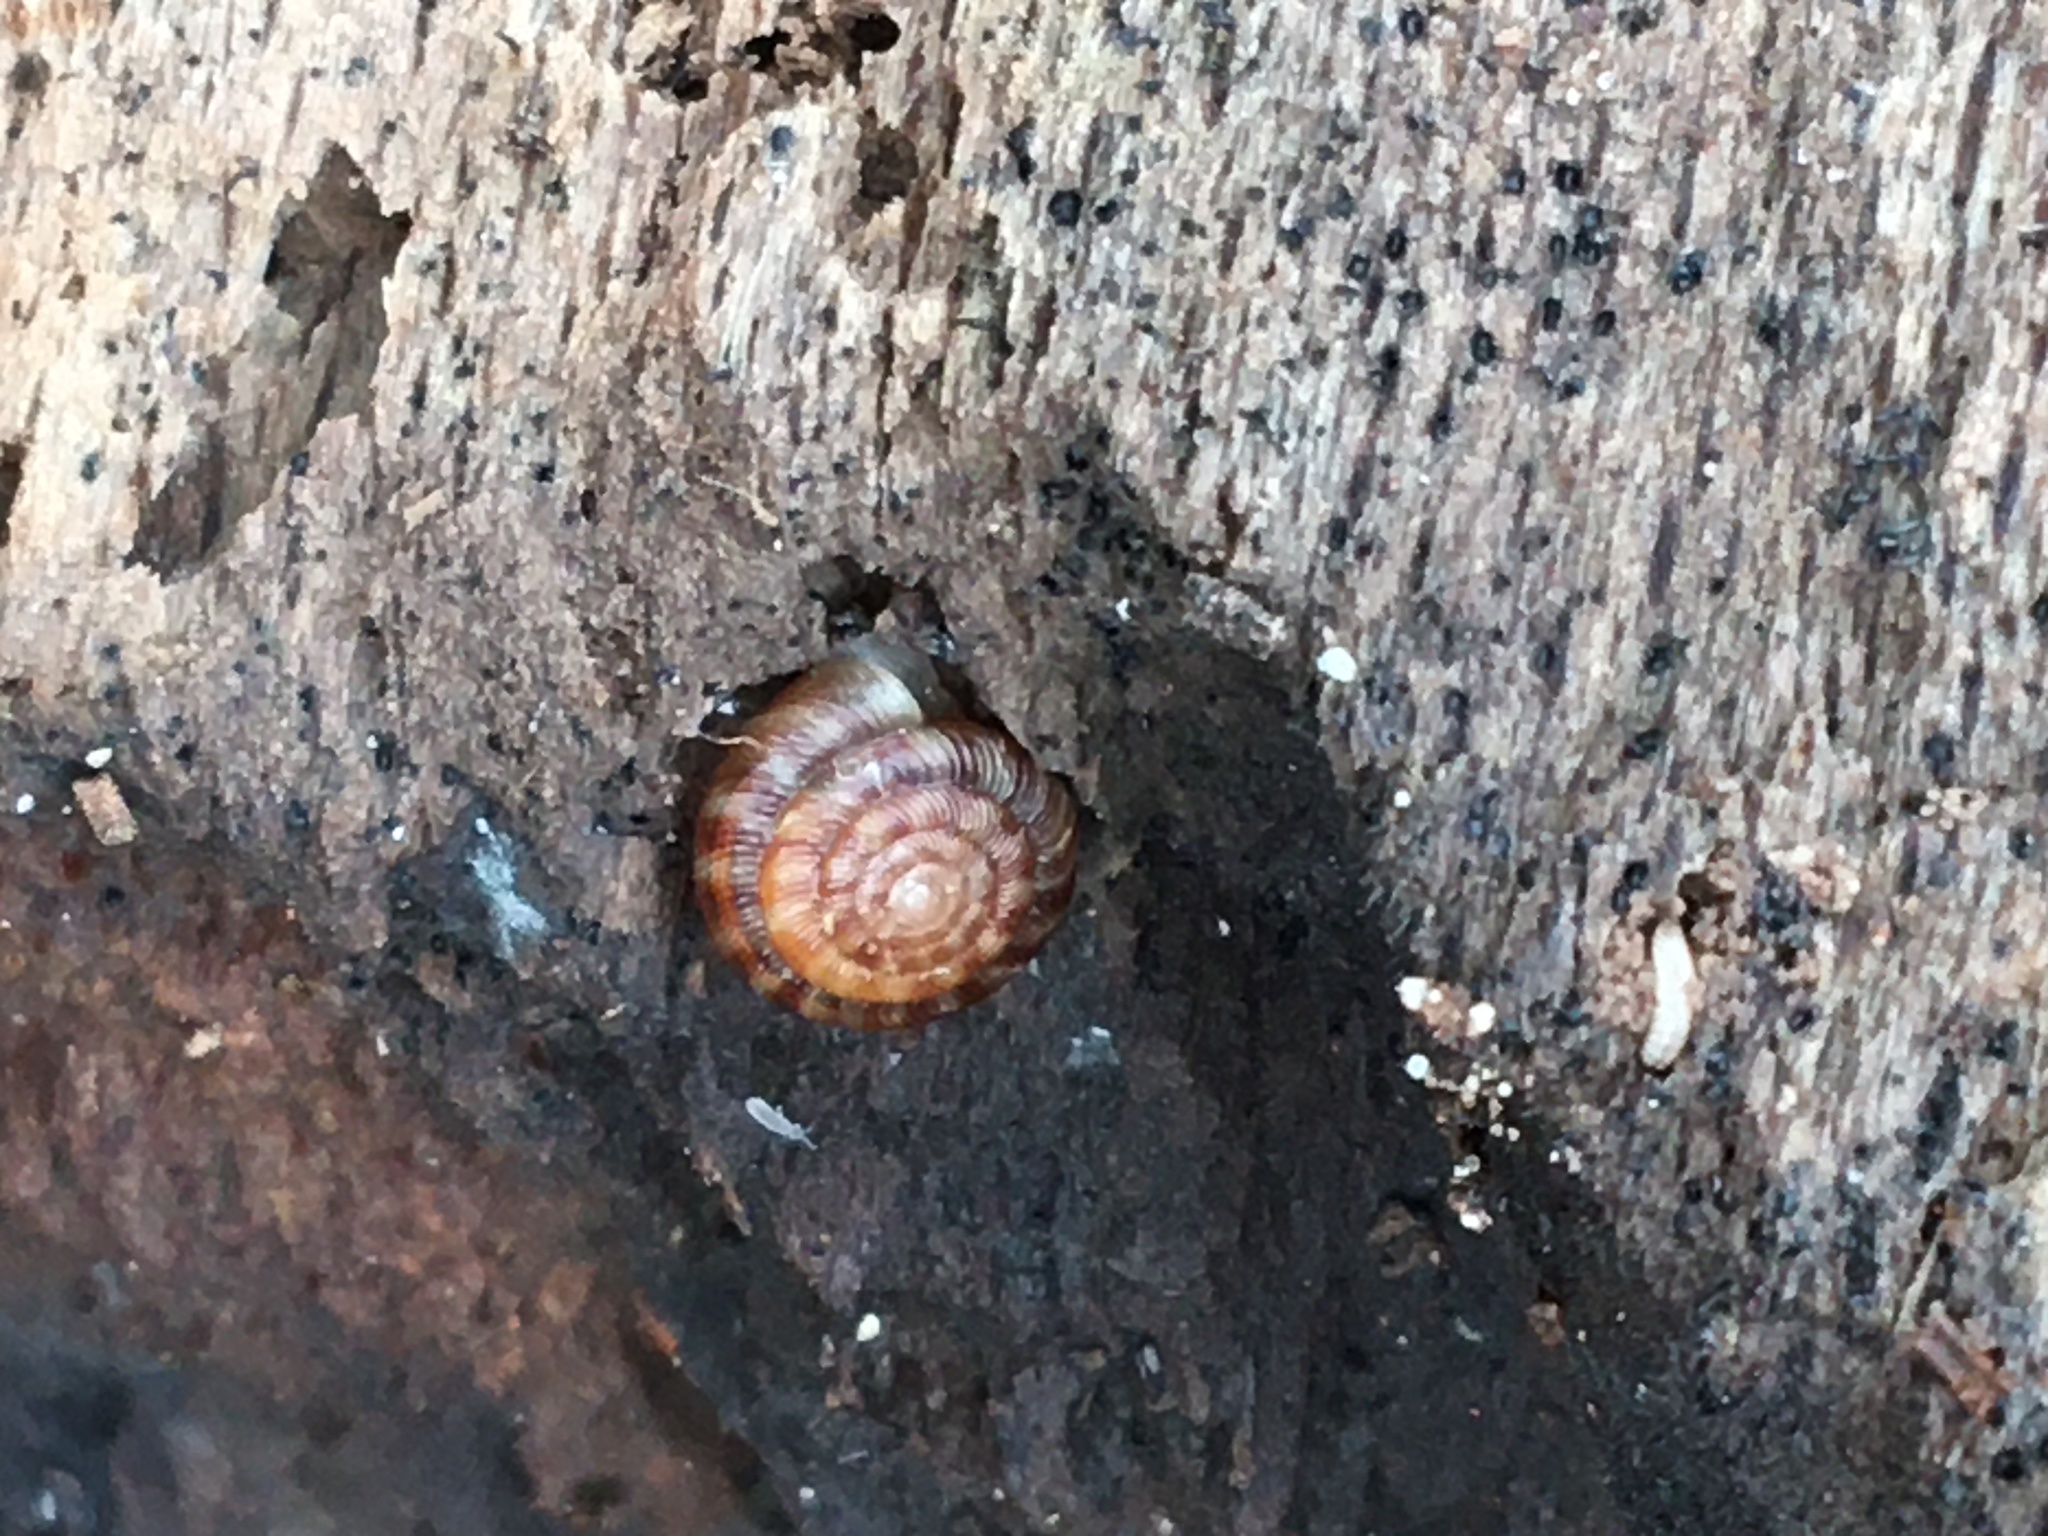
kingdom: Animalia
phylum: Mollusca
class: Gastropoda
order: Stylommatophora
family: Discidae
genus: Discus
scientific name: Discus rotundatus
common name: Rounded snail
